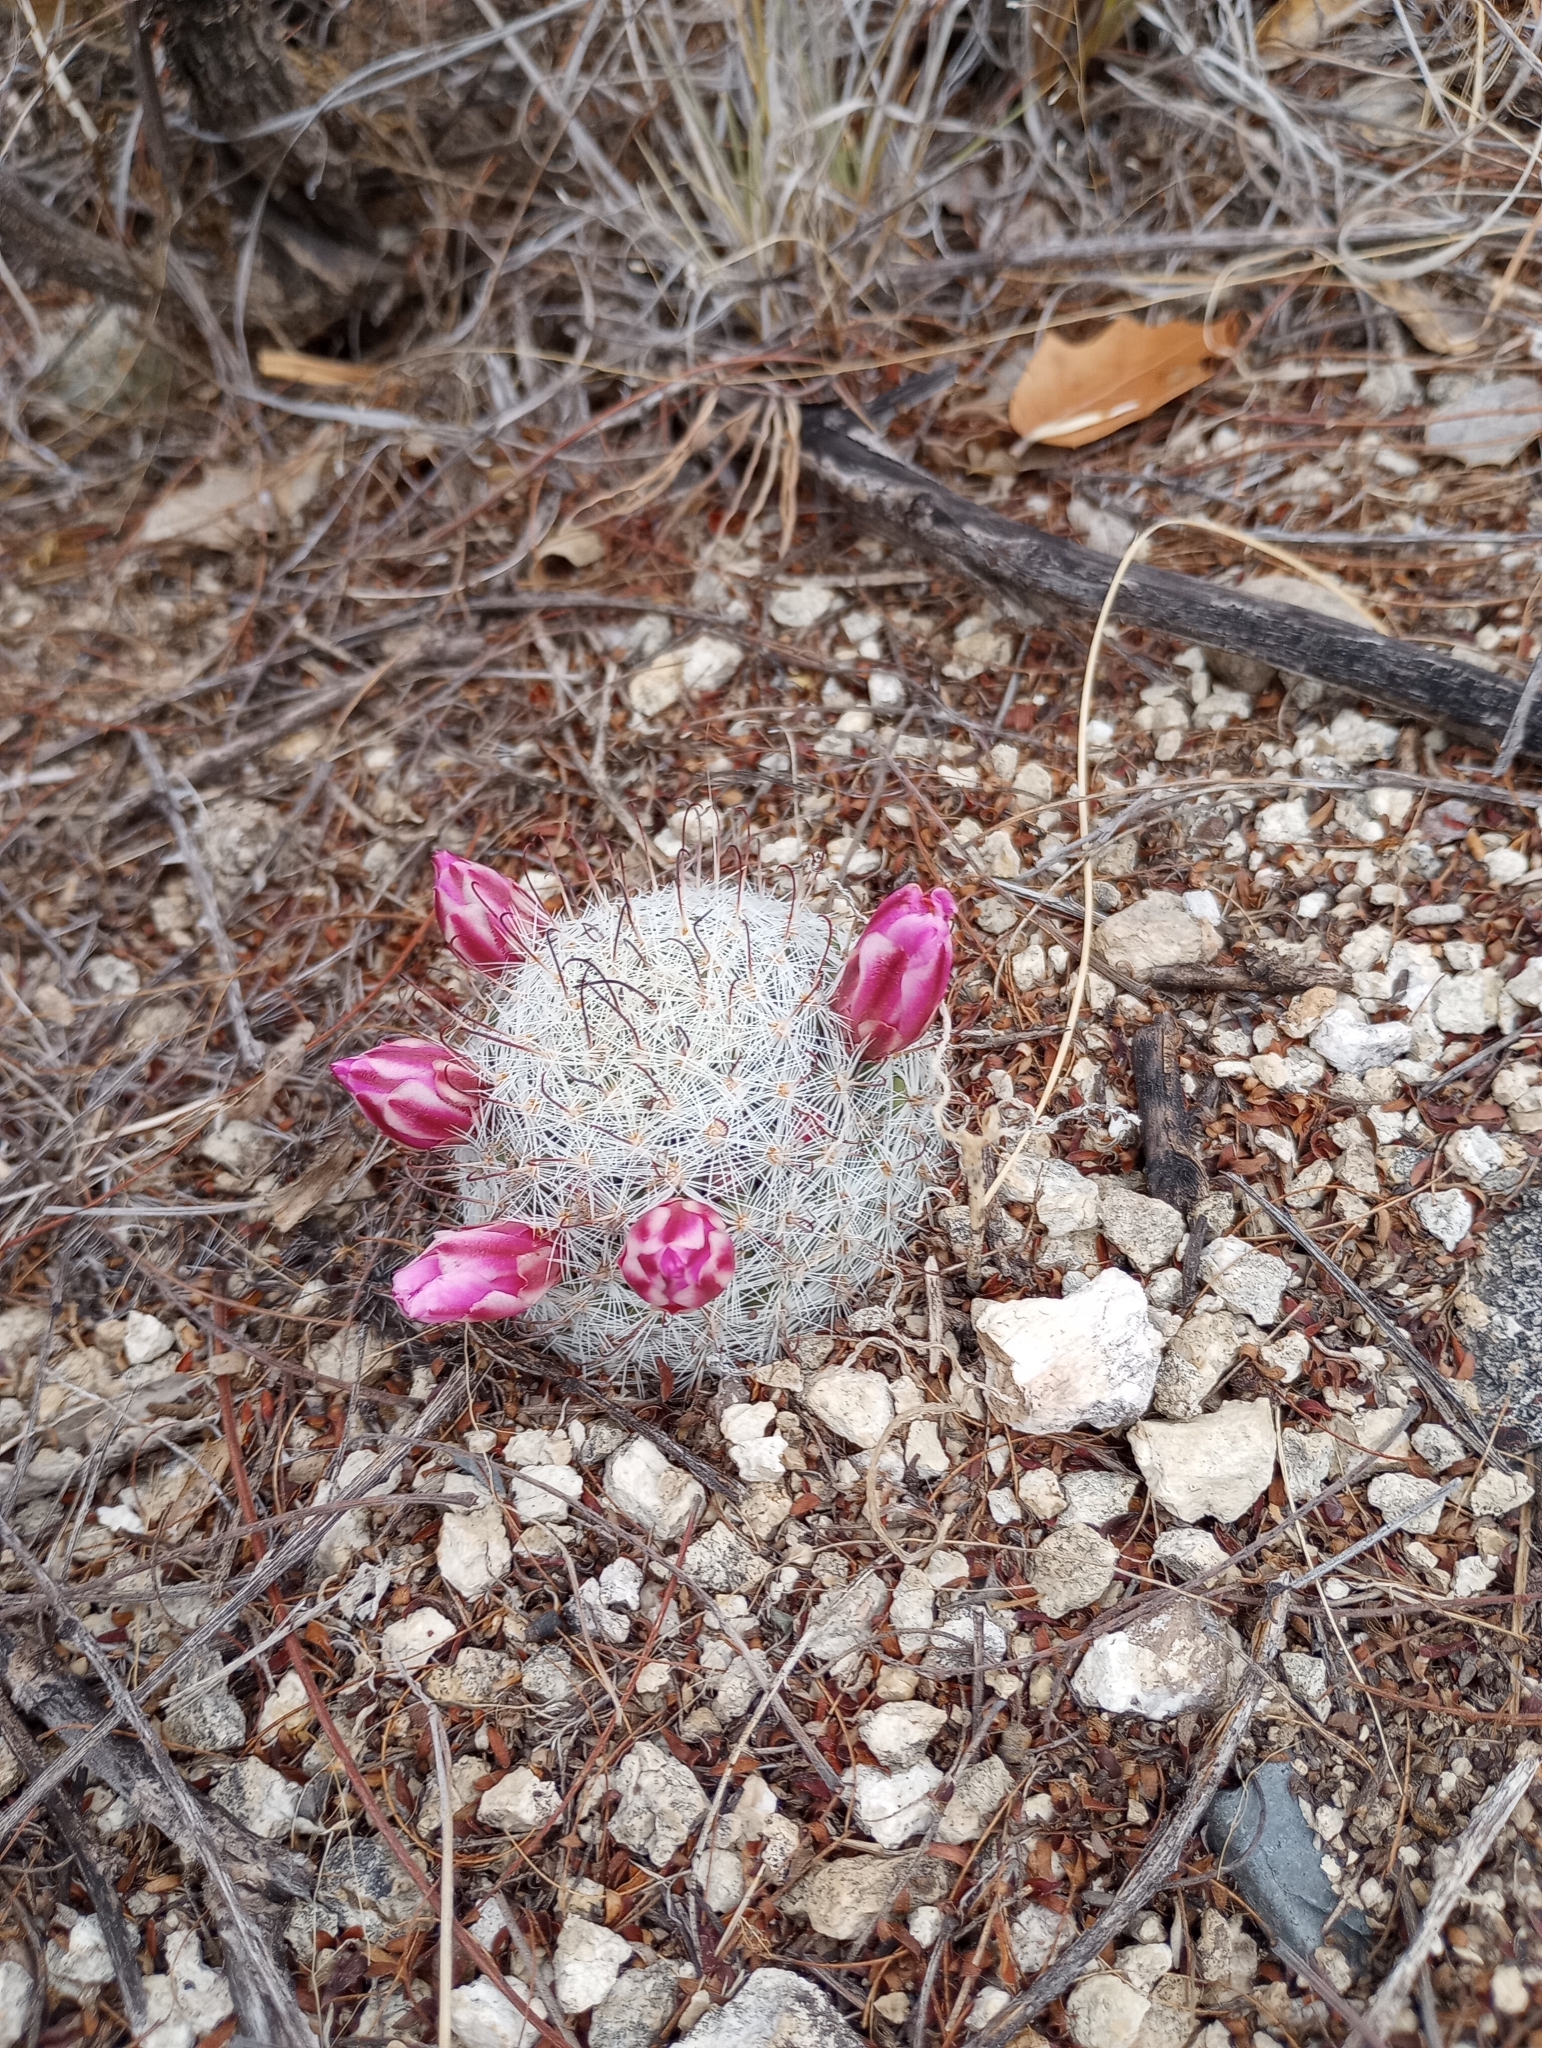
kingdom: Plantae
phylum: Tracheophyta
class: Magnoliopsida
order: Caryophyllales
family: Cactaceae
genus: Cochemiea
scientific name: Cochemiea grahamii
